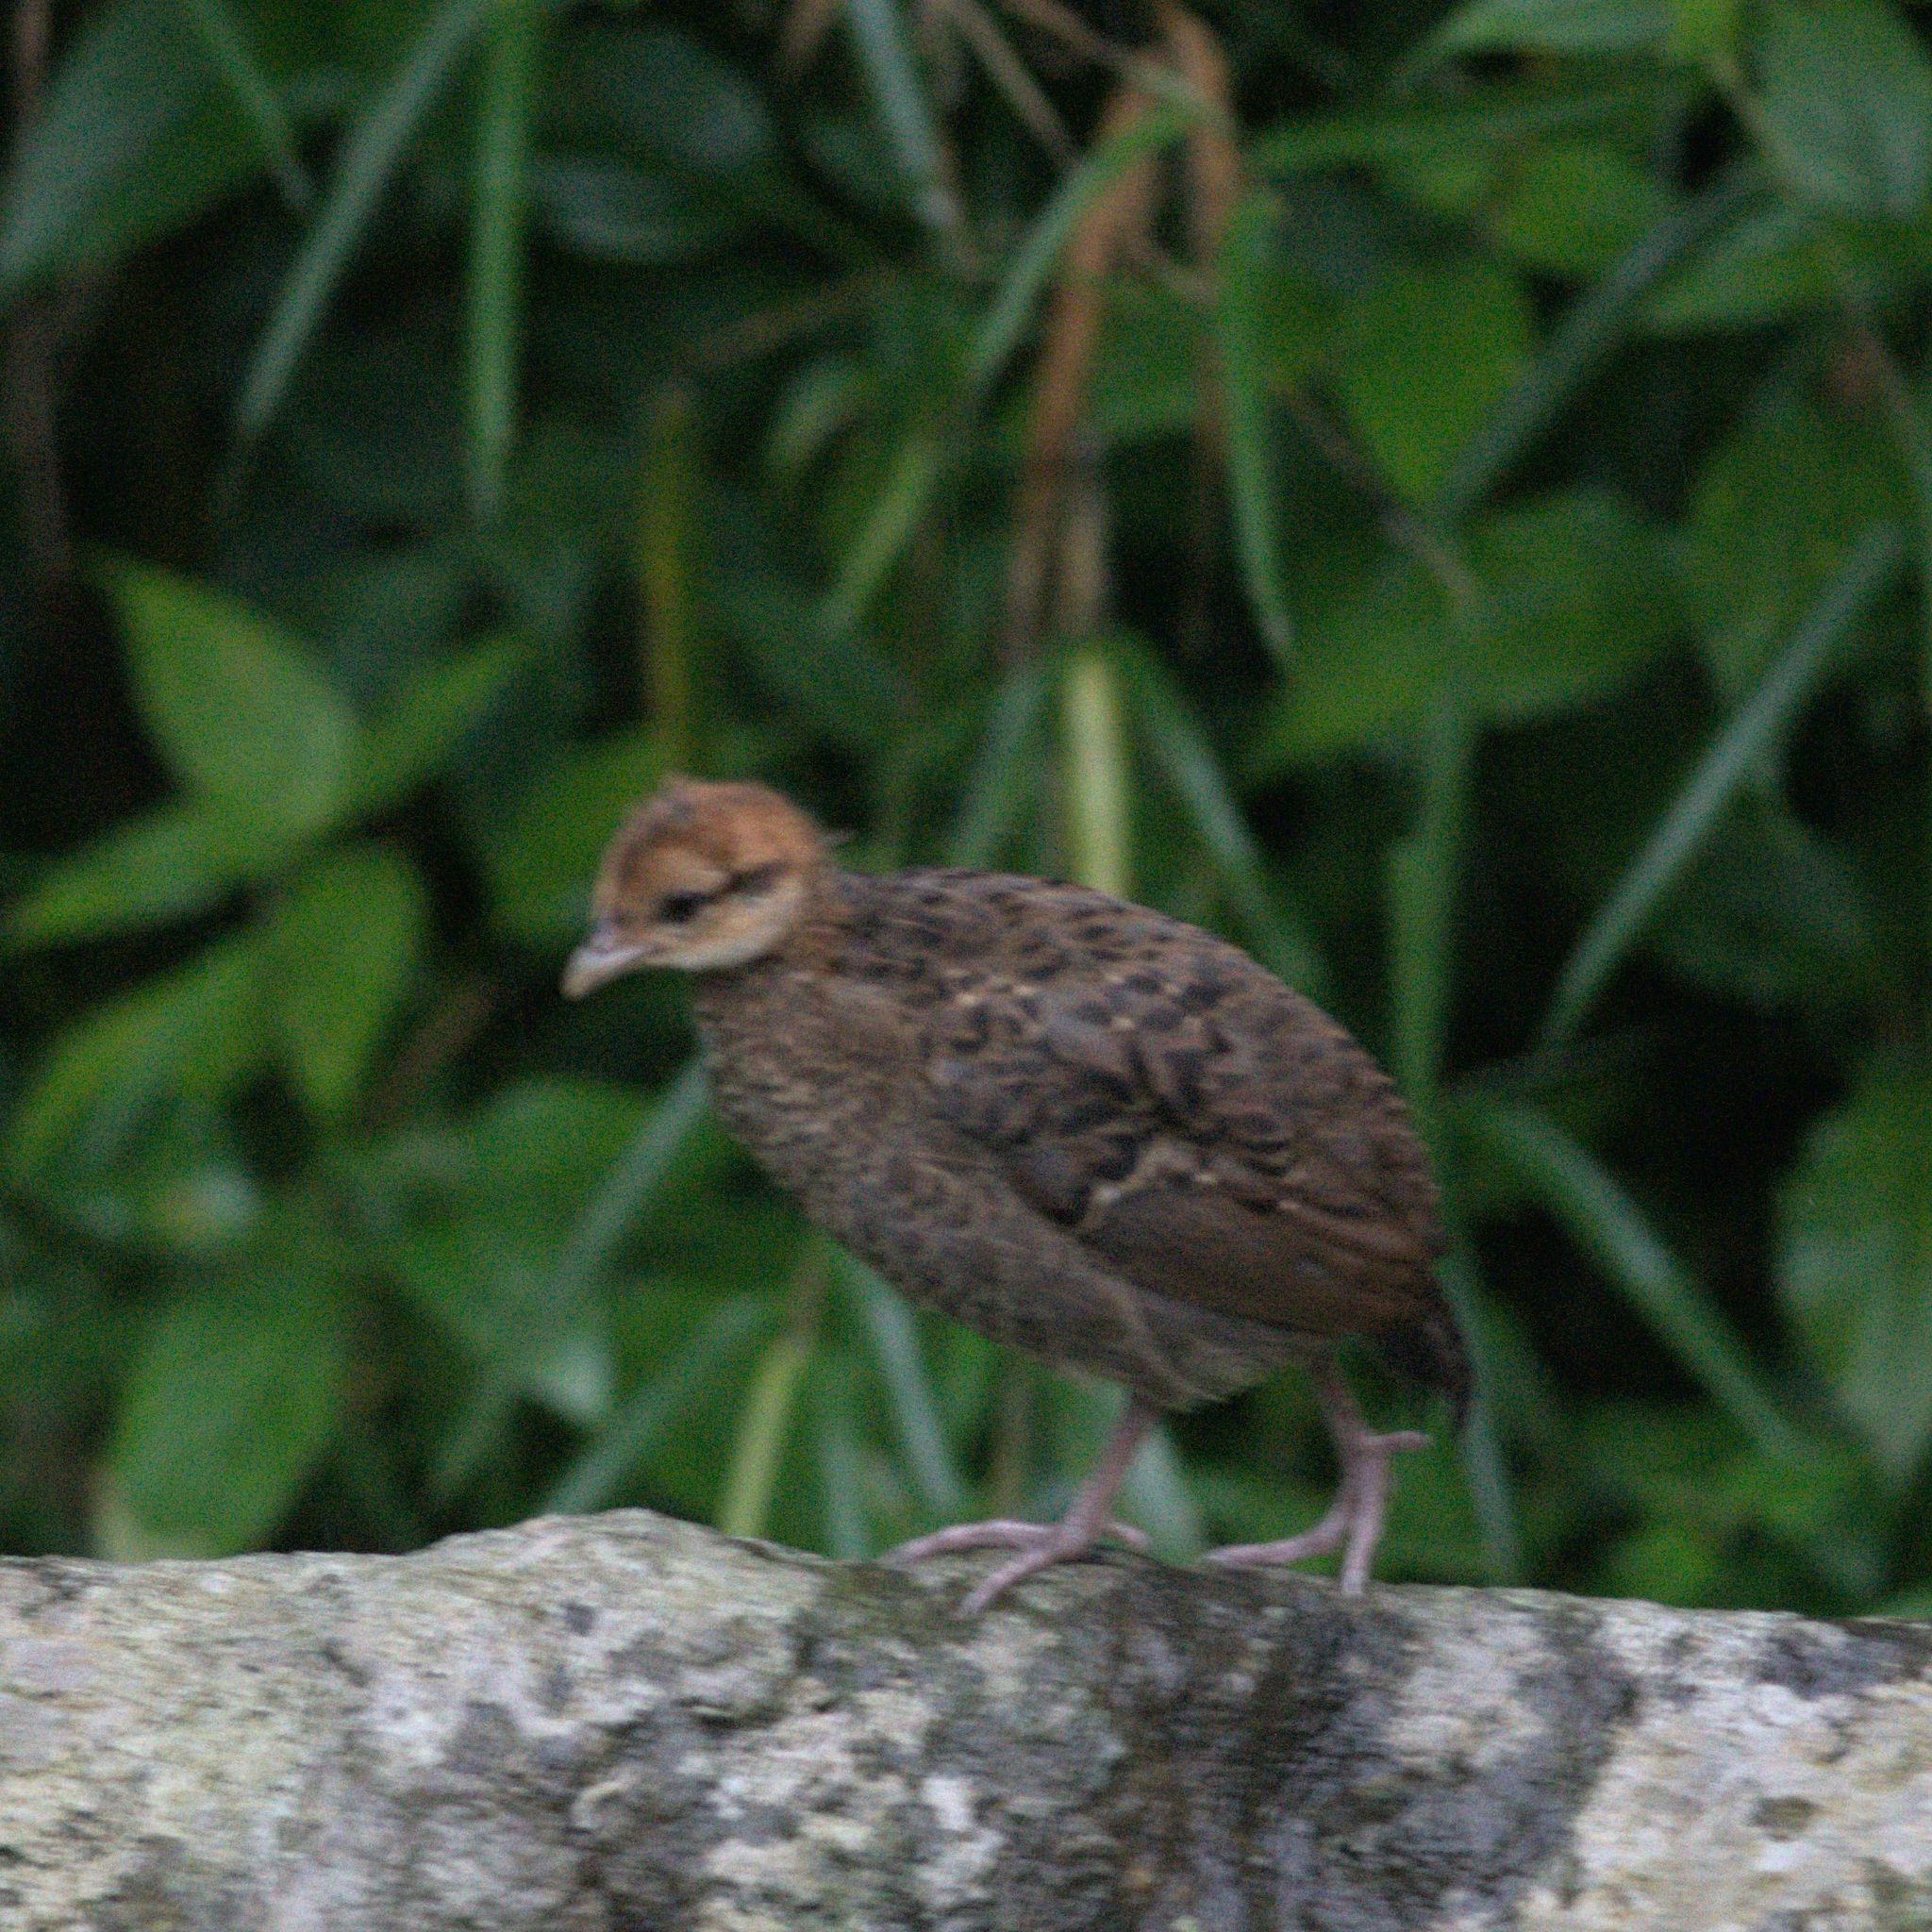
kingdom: Animalia
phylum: Chordata
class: Aves
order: Galliformes
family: Phasianidae
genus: Lophura
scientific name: Lophura leucomelanos
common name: Kalij pheasant
